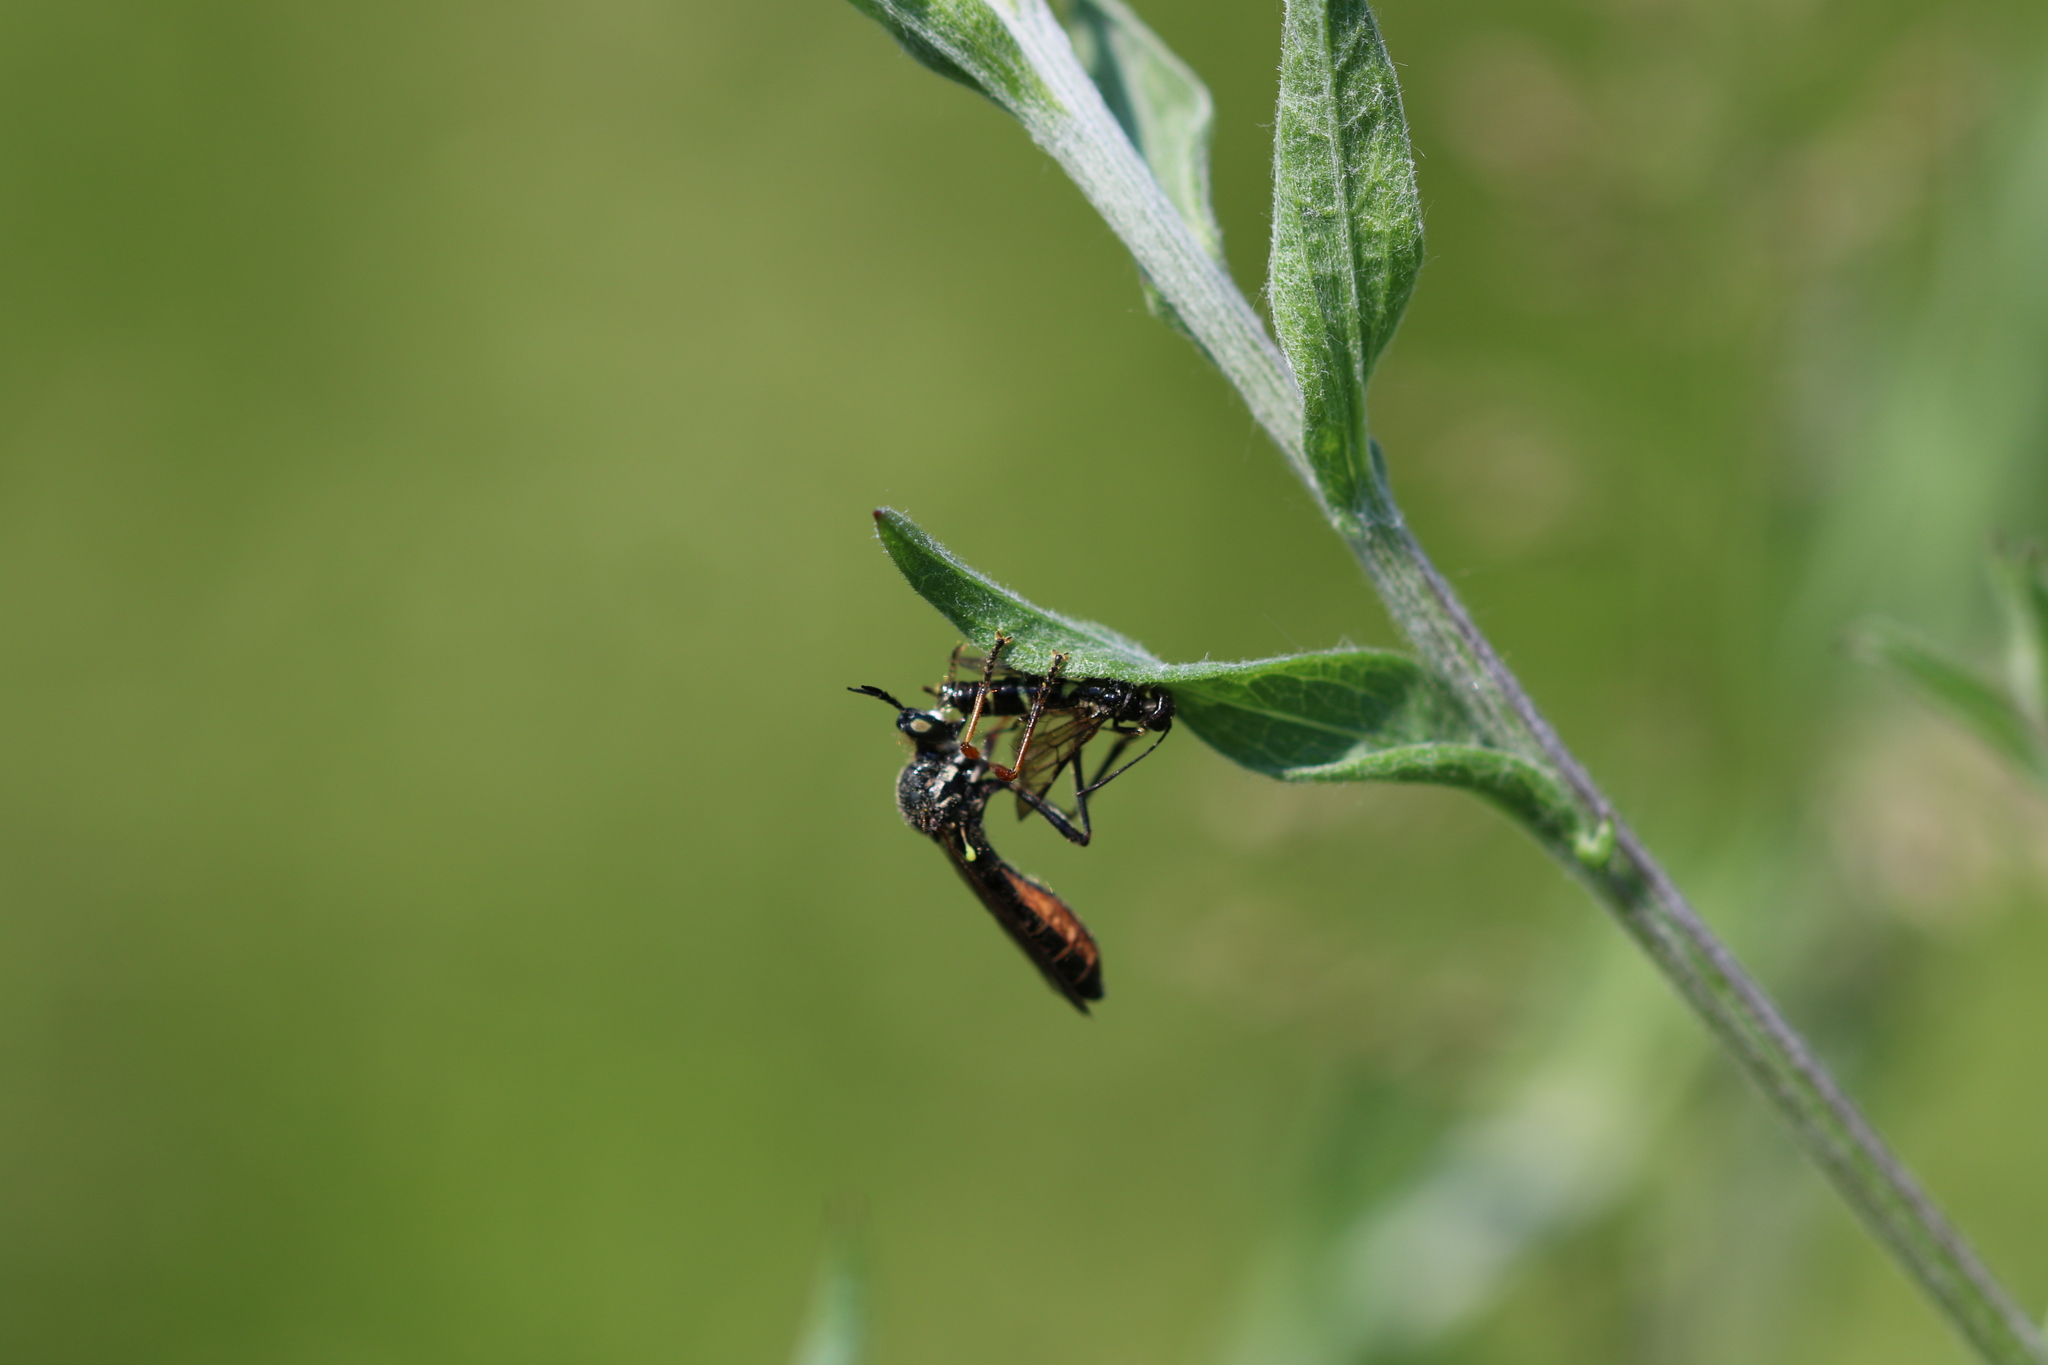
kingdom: Animalia
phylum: Arthropoda
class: Insecta
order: Diptera
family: Asilidae
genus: Dioctria
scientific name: Dioctria rufipes
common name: Common red-legged robberfly
